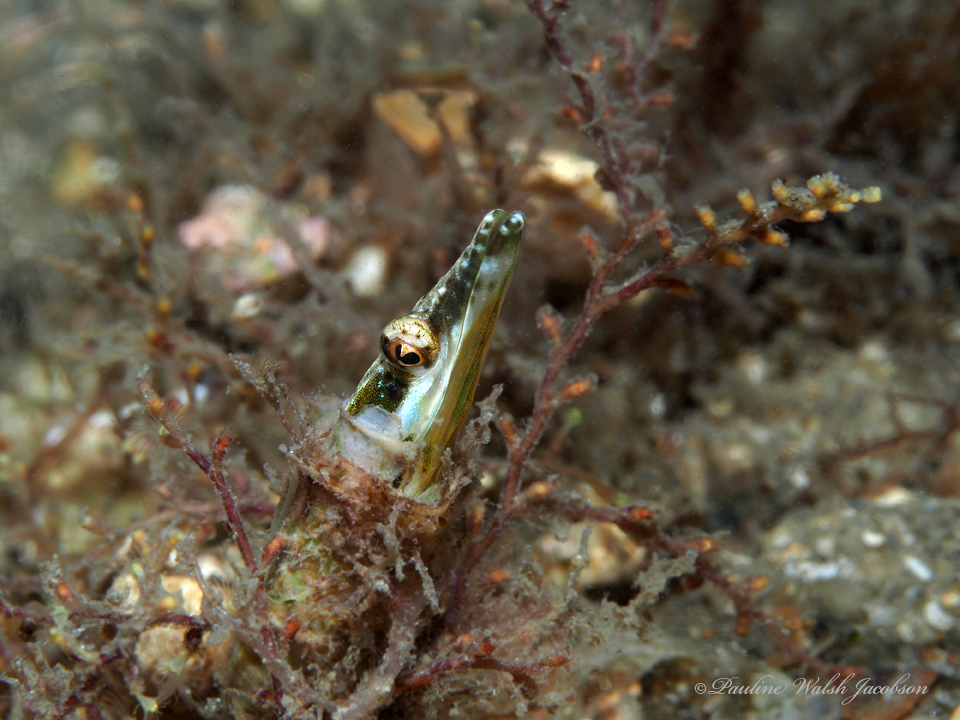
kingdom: Animalia
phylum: Chordata
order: Perciformes
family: Chaenopsidae
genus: Chaenopsis
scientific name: Chaenopsis ocellata
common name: Bluethroat pikeblenny
